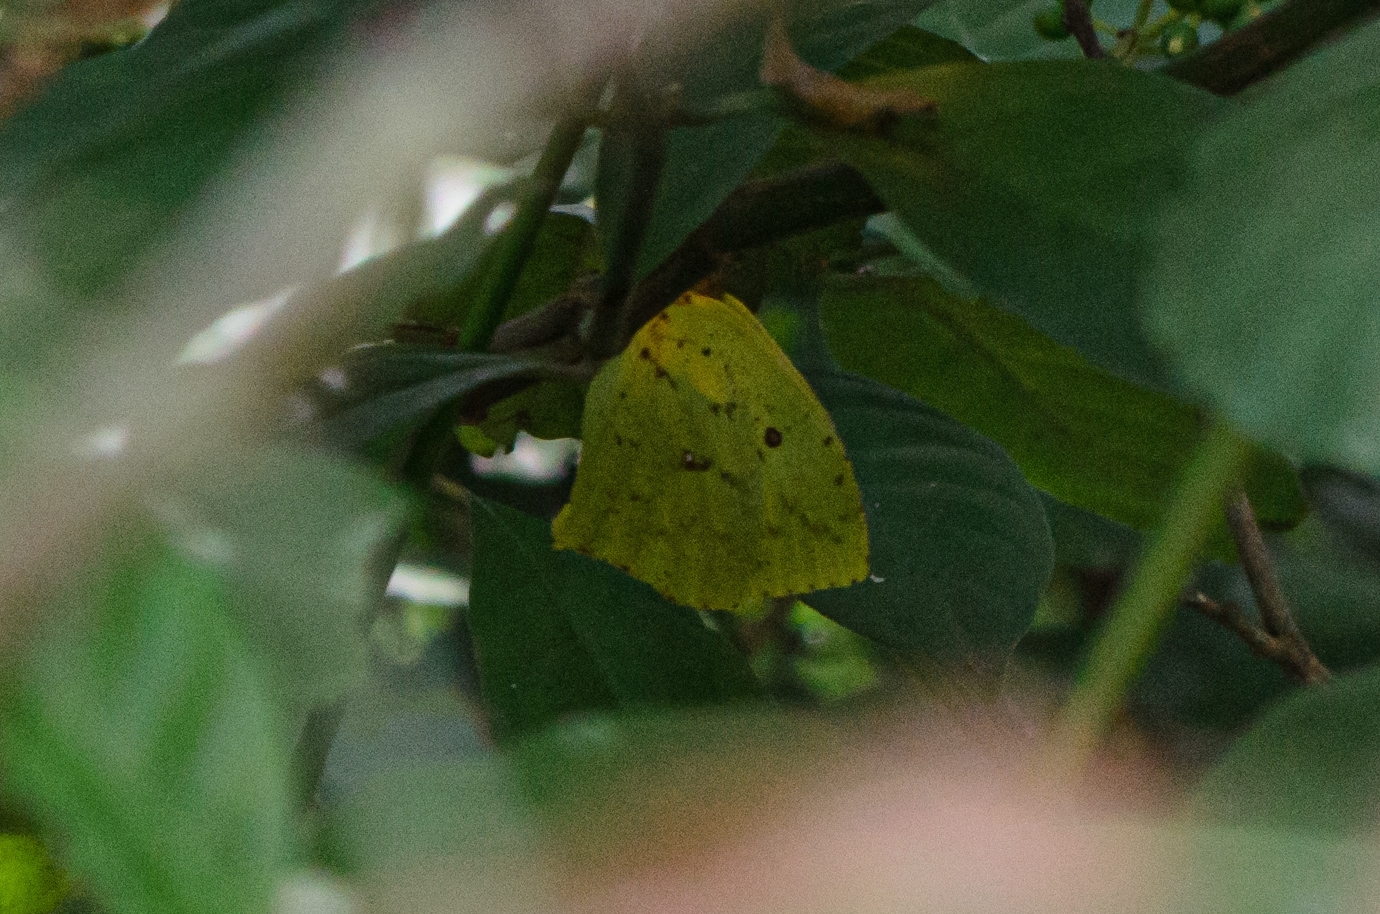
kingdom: Animalia
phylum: Arthropoda
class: Insecta
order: Lepidoptera
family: Pieridae
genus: Phoebis
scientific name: Phoebis neocypris
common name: Tailed sulphur
